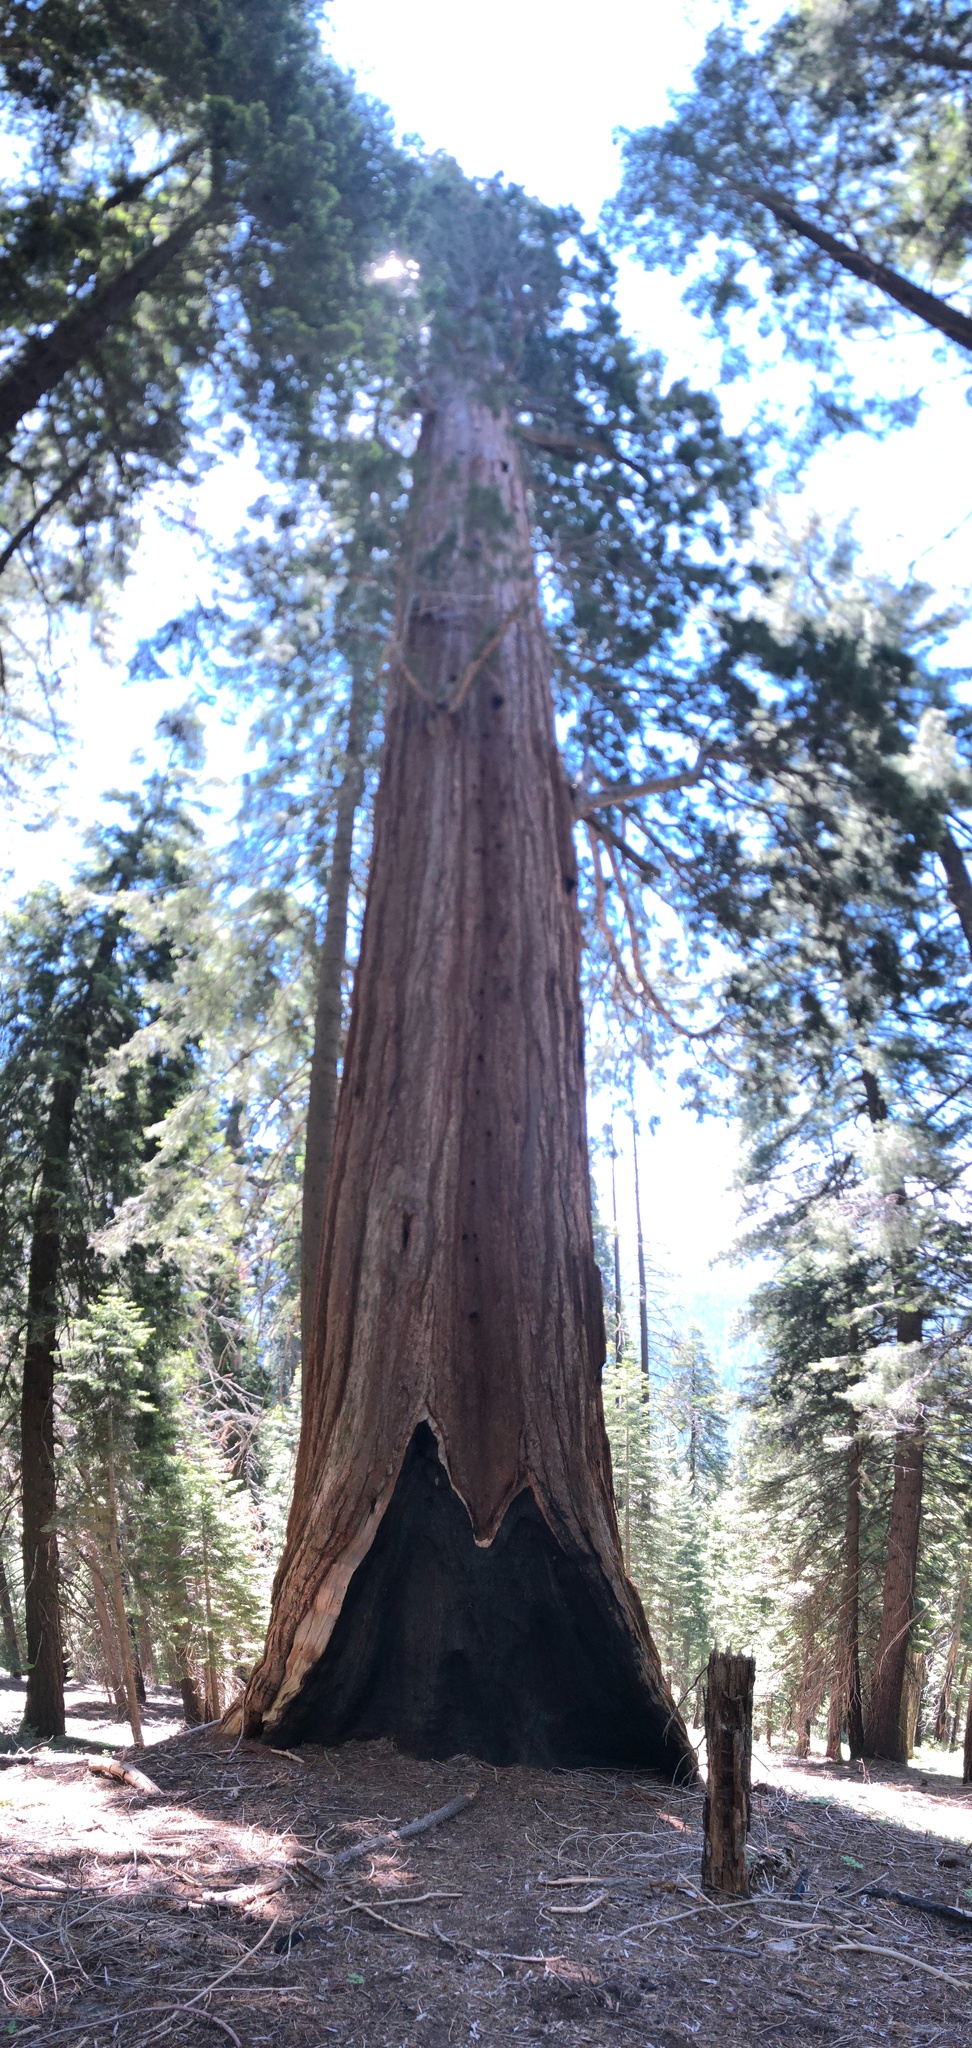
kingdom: Plantae
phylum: Tracheophyta
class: Pinopsida
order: Pinales
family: Cupressaceae
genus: Sequoiadendron
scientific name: Sequoiadendron giganteum
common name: Wellingtonia
